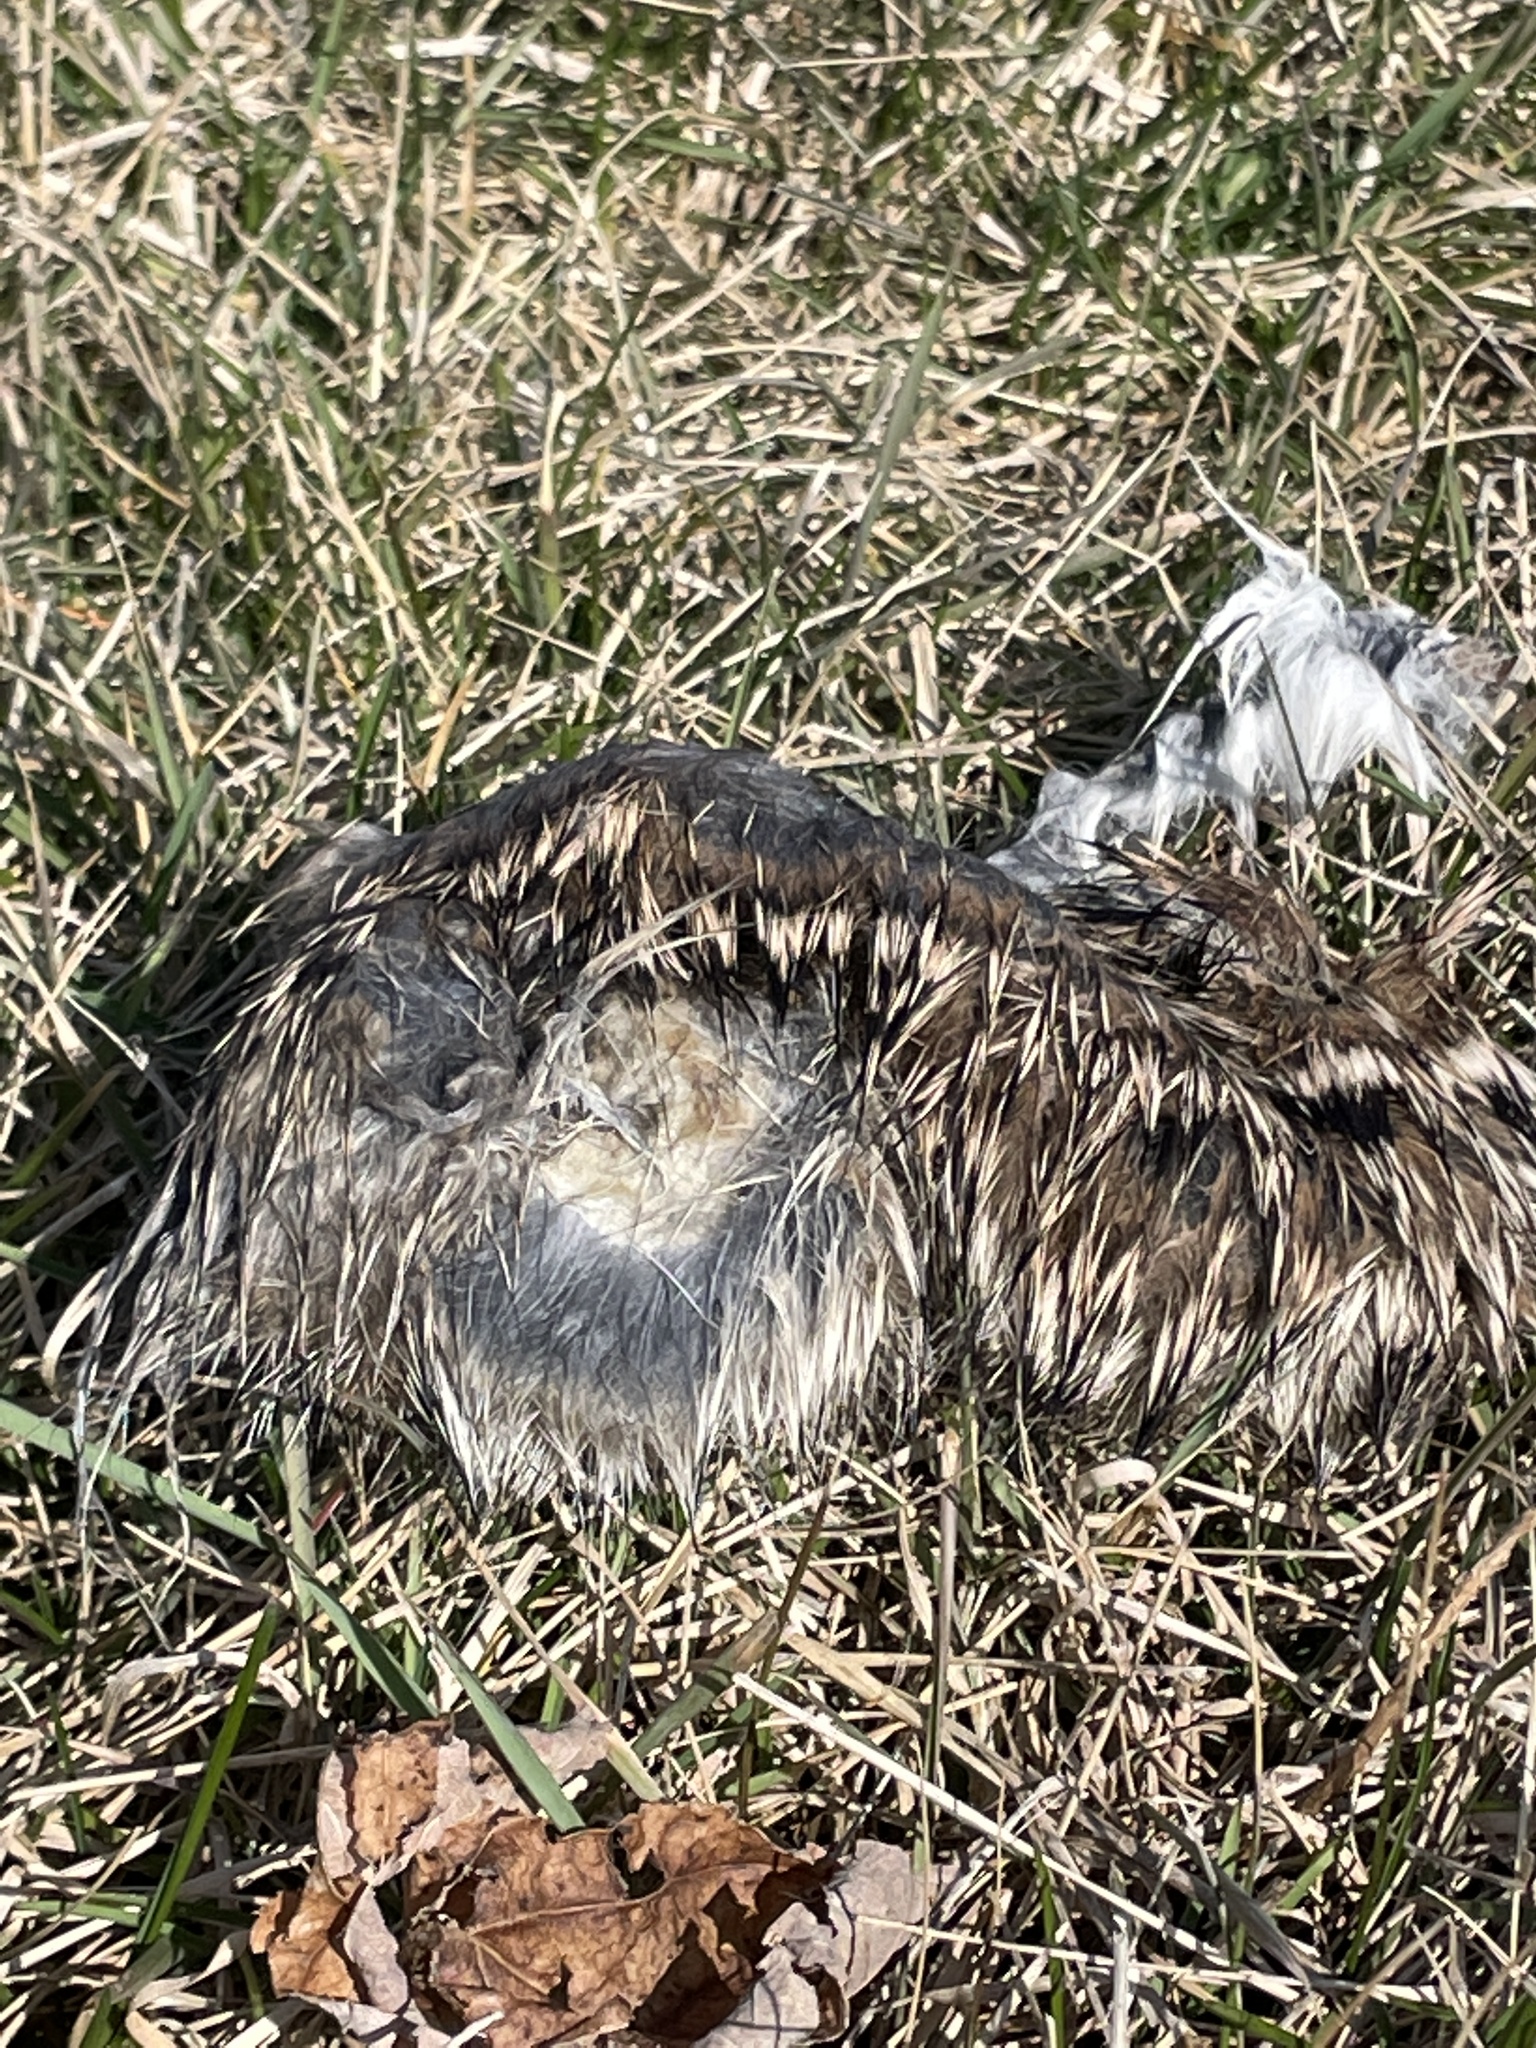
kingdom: Animalia
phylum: Chordata
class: Mammalia
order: Lagomorpha
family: Leporidae
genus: Sylvilagus
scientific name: Sylvilagus floridanus
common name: Eastern cottontail
